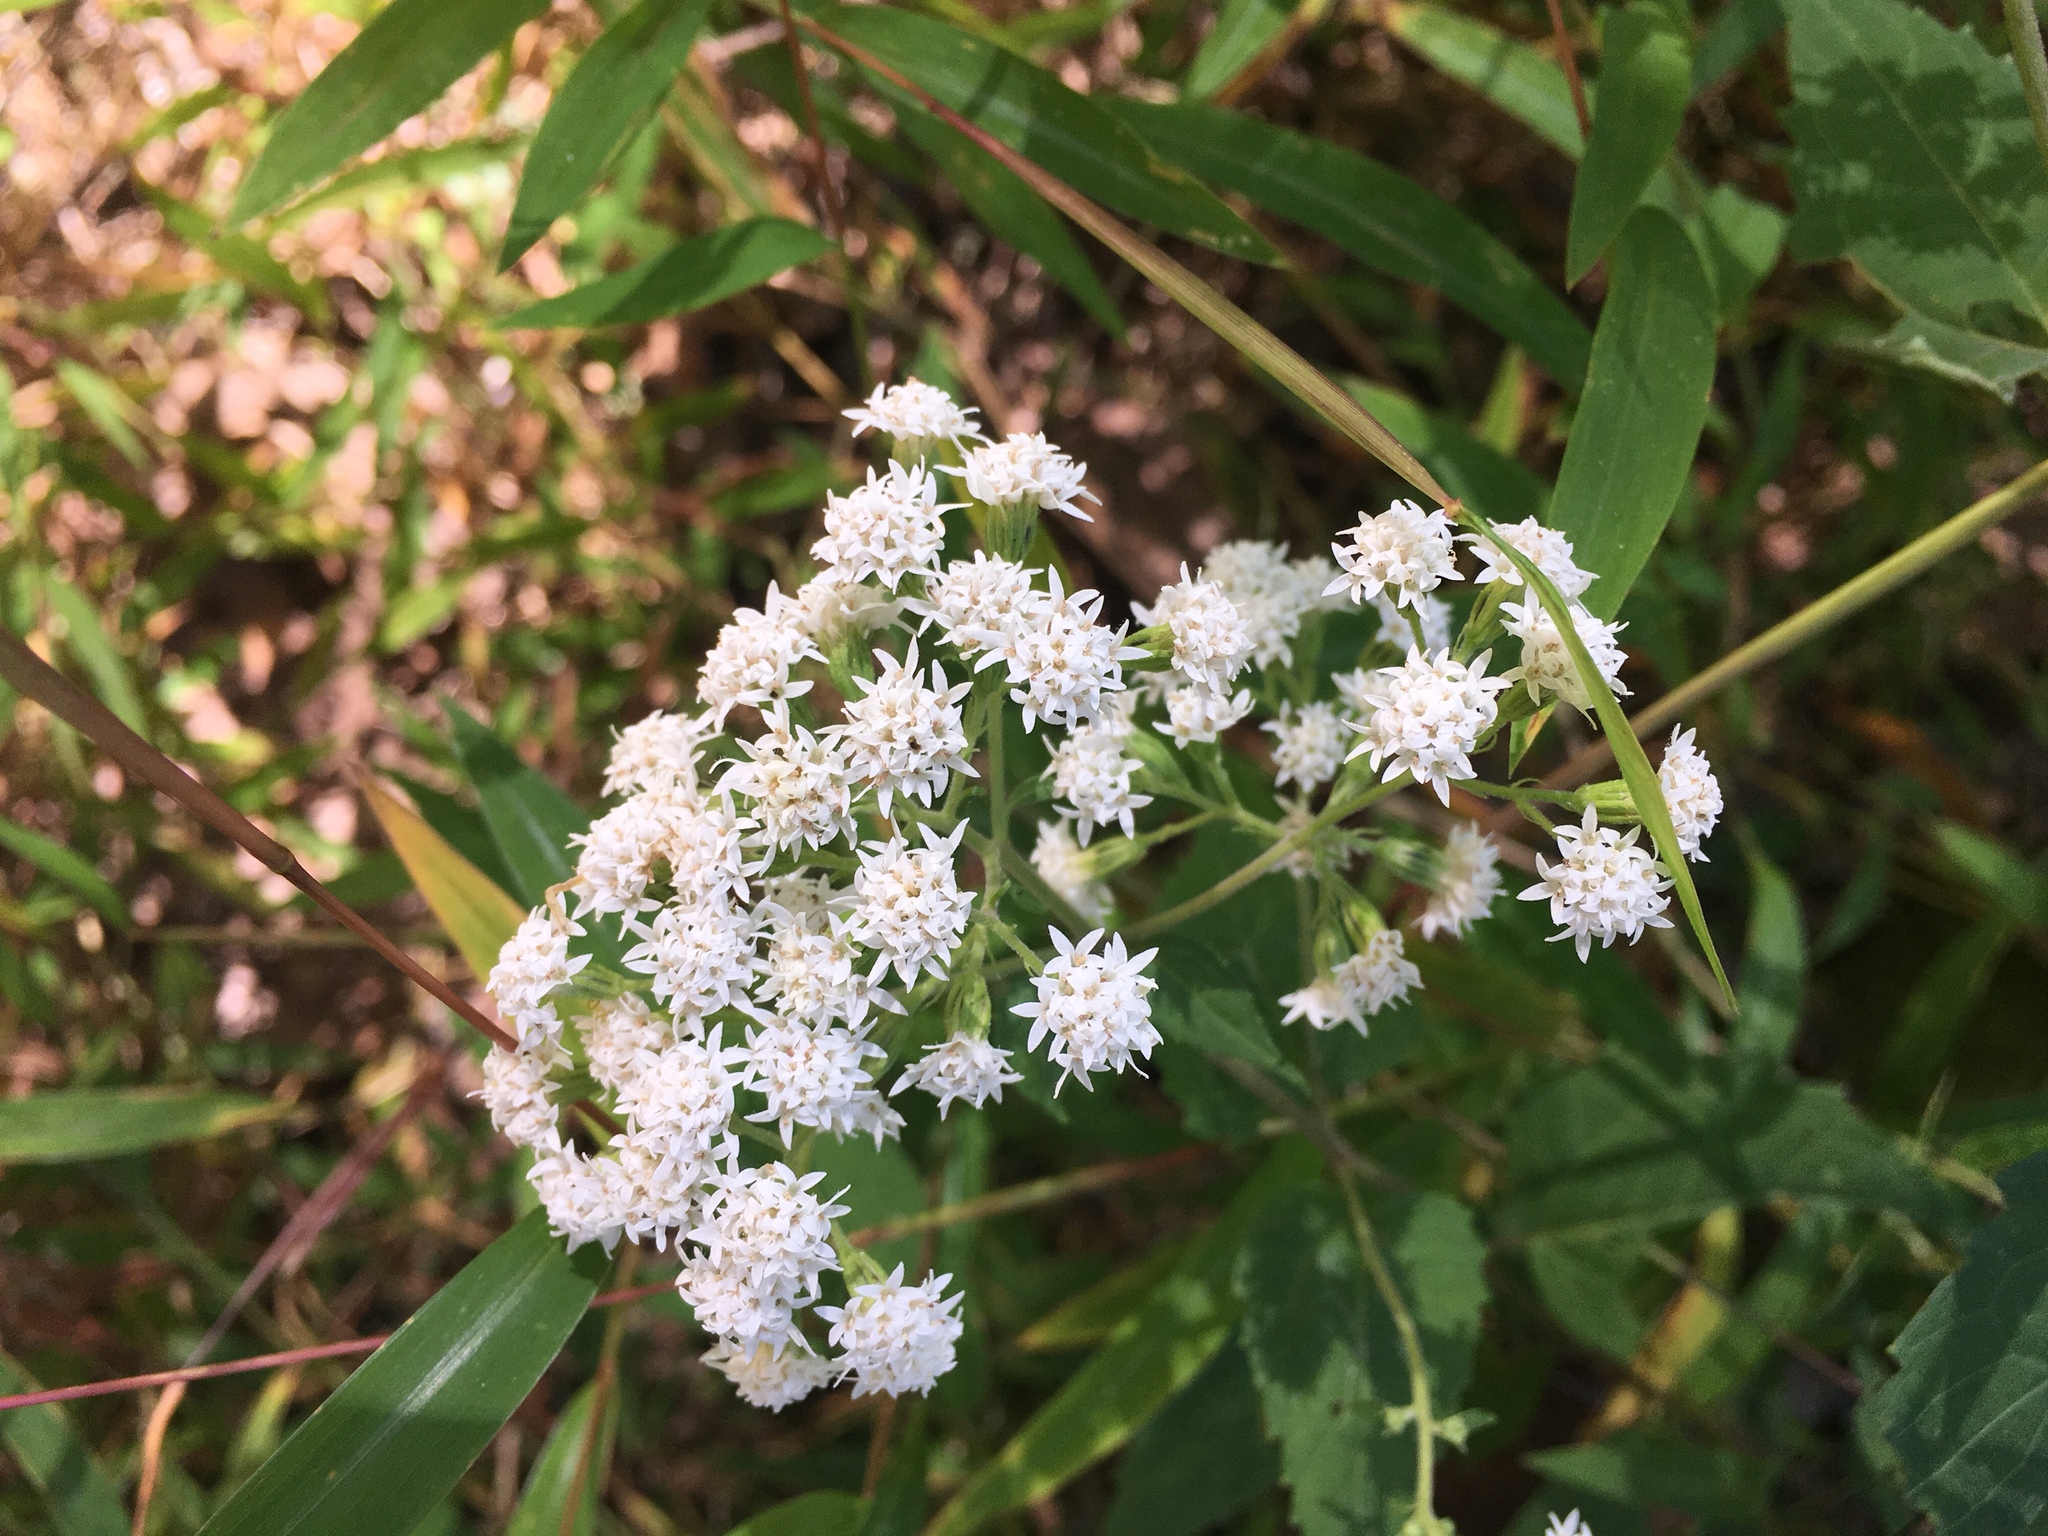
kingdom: Plantae
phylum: Tracheophyta
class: Magnoliopsida
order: Asterales
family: Asteraceae
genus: Ageratina
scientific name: Ageratina altissima
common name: White snakeroot
